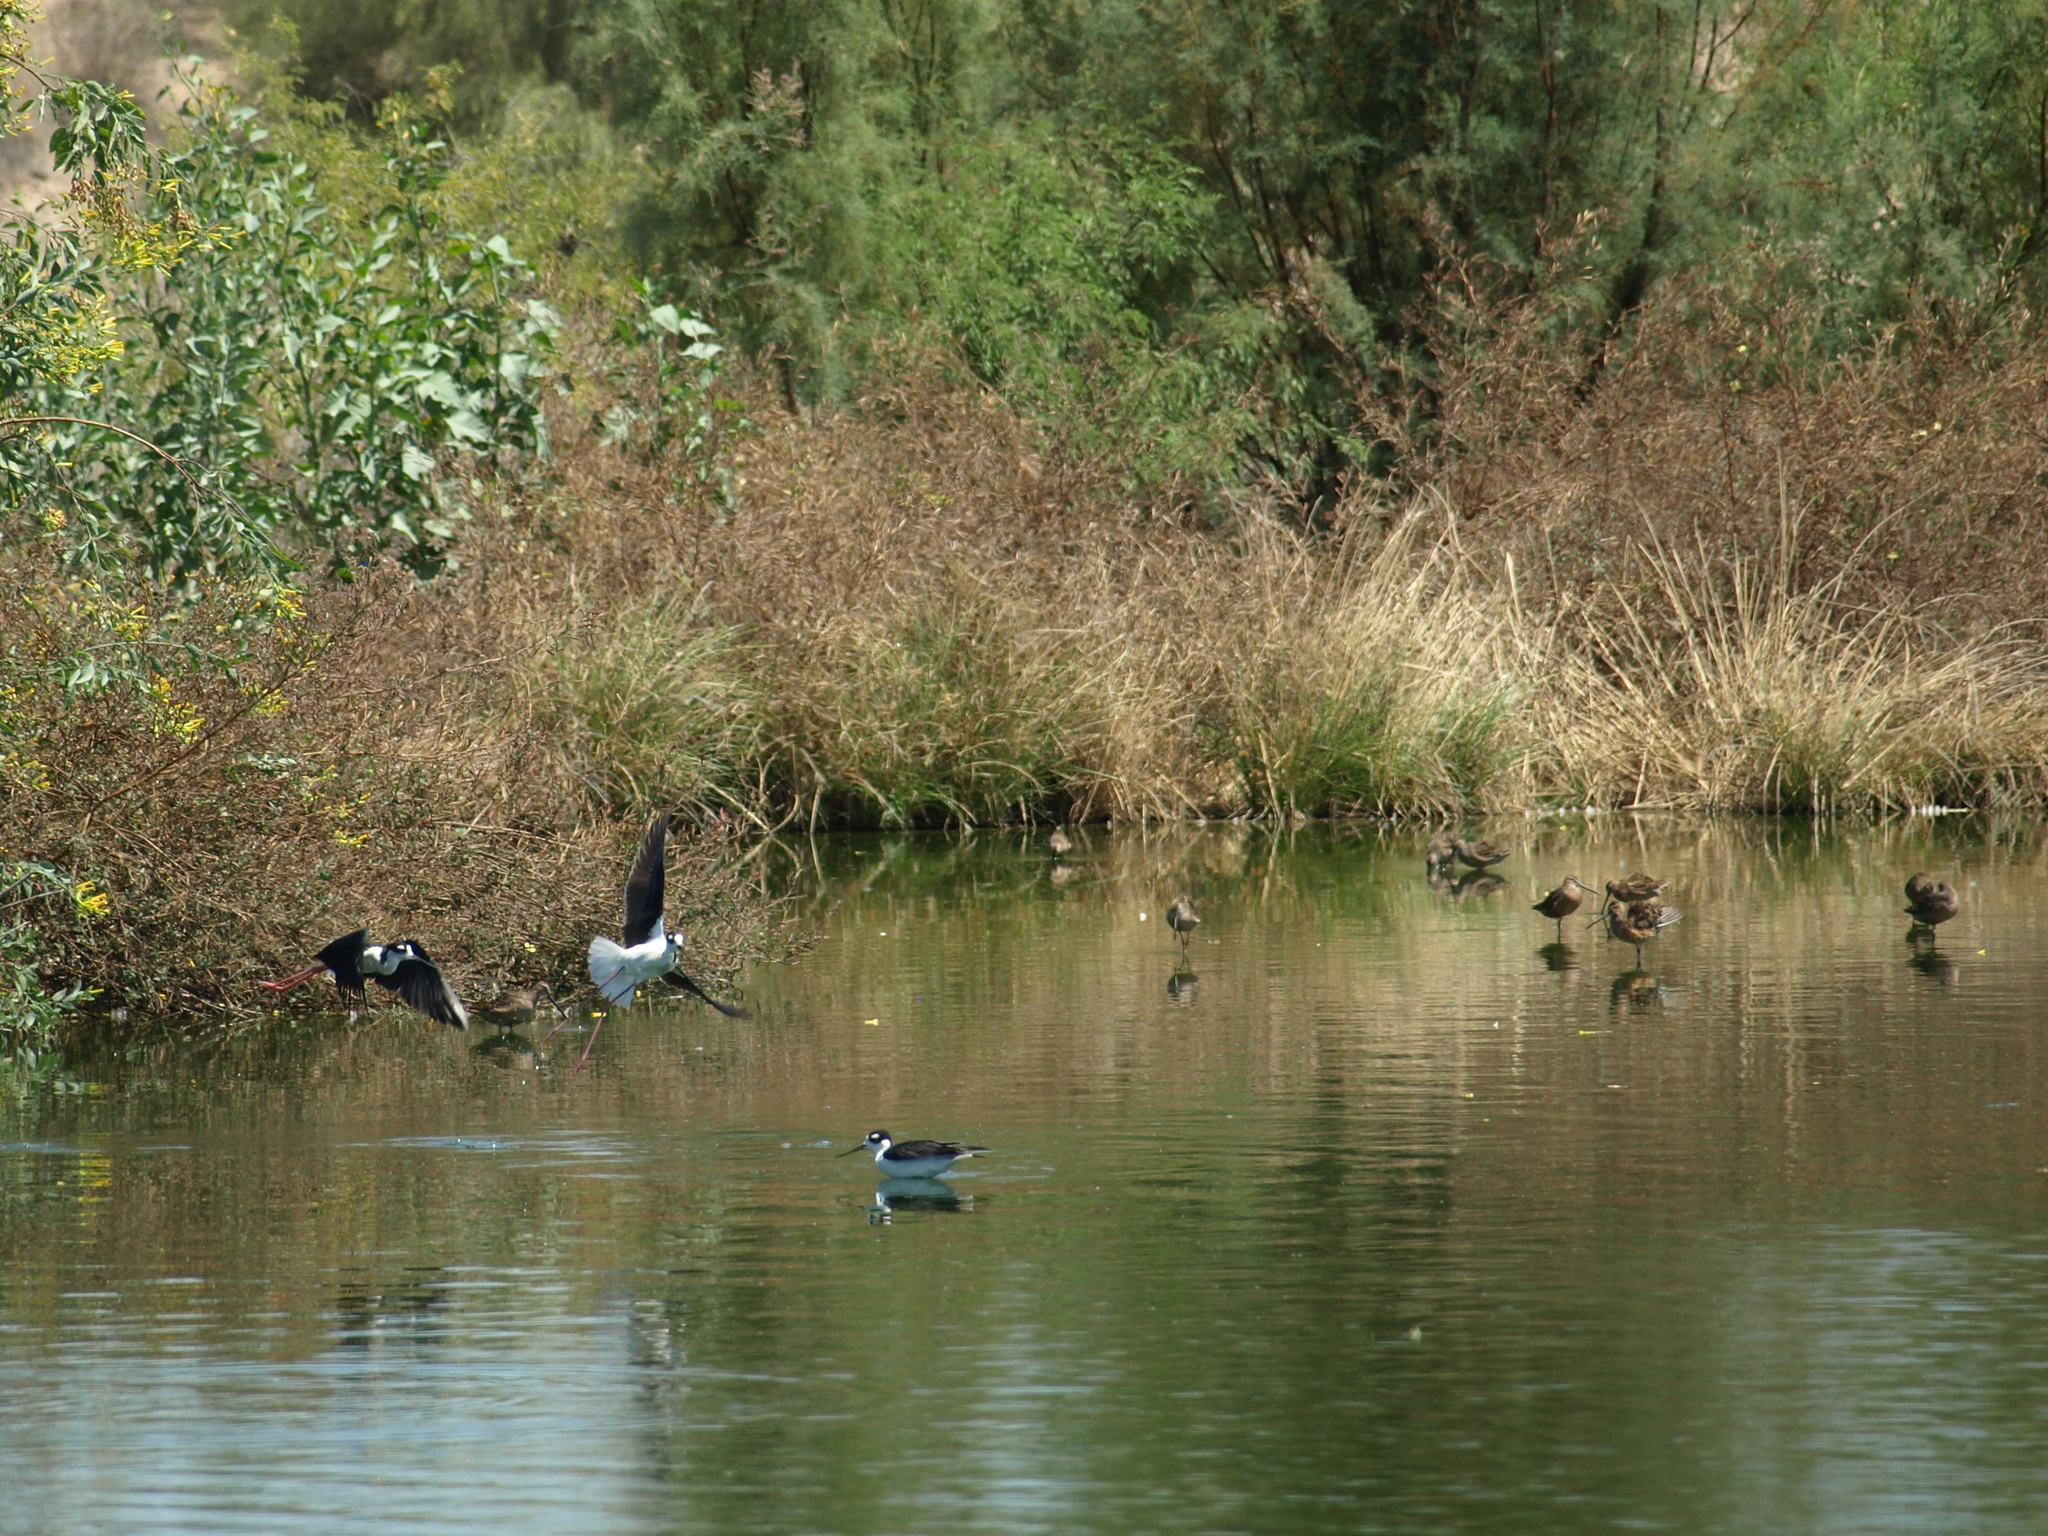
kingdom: Animalia
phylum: Chordata
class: Aves
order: Charadriiformes
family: Recurvirostridae
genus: Himantopus
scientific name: Himantopus mexicanus
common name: Black-necked stilt
